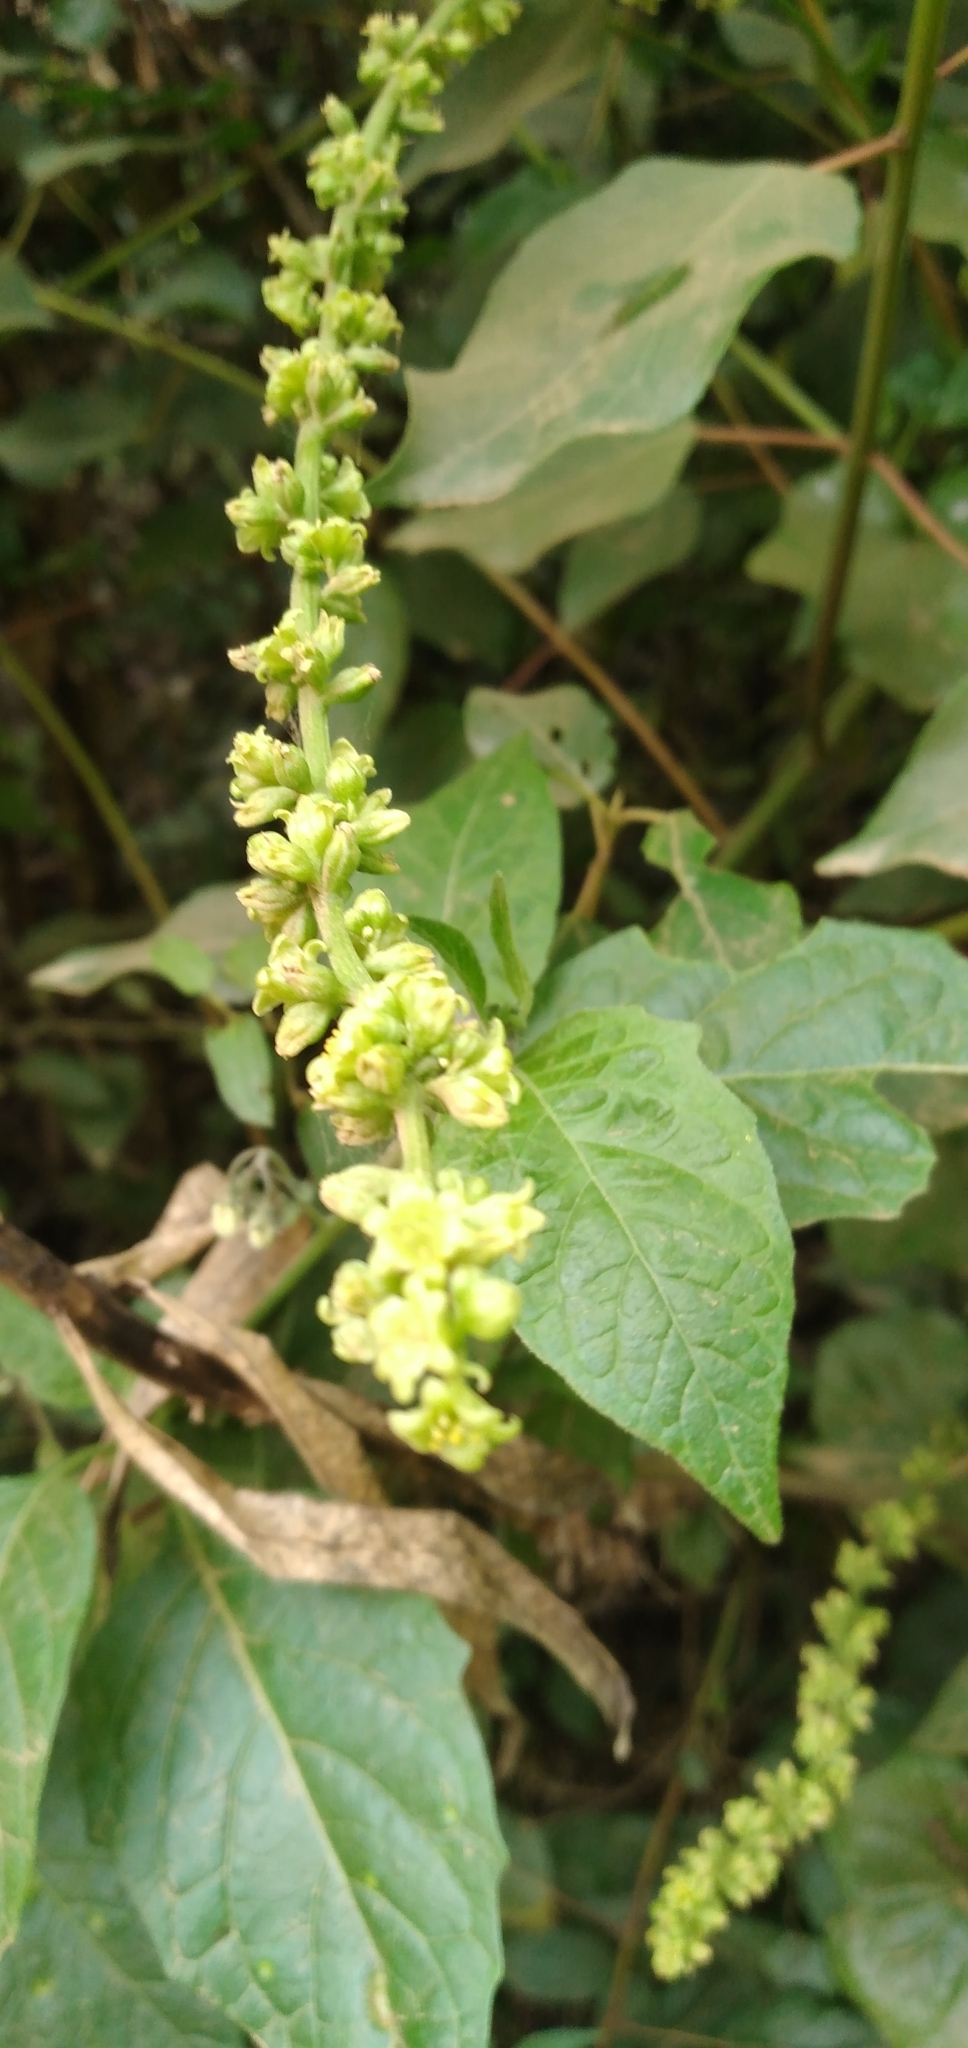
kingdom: Plantae
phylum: Tracheophyta
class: Liliopsida
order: Dioscoreales
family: Dioscoreaceae
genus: Dioscorea
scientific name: Dioscorea bryoniifolia
